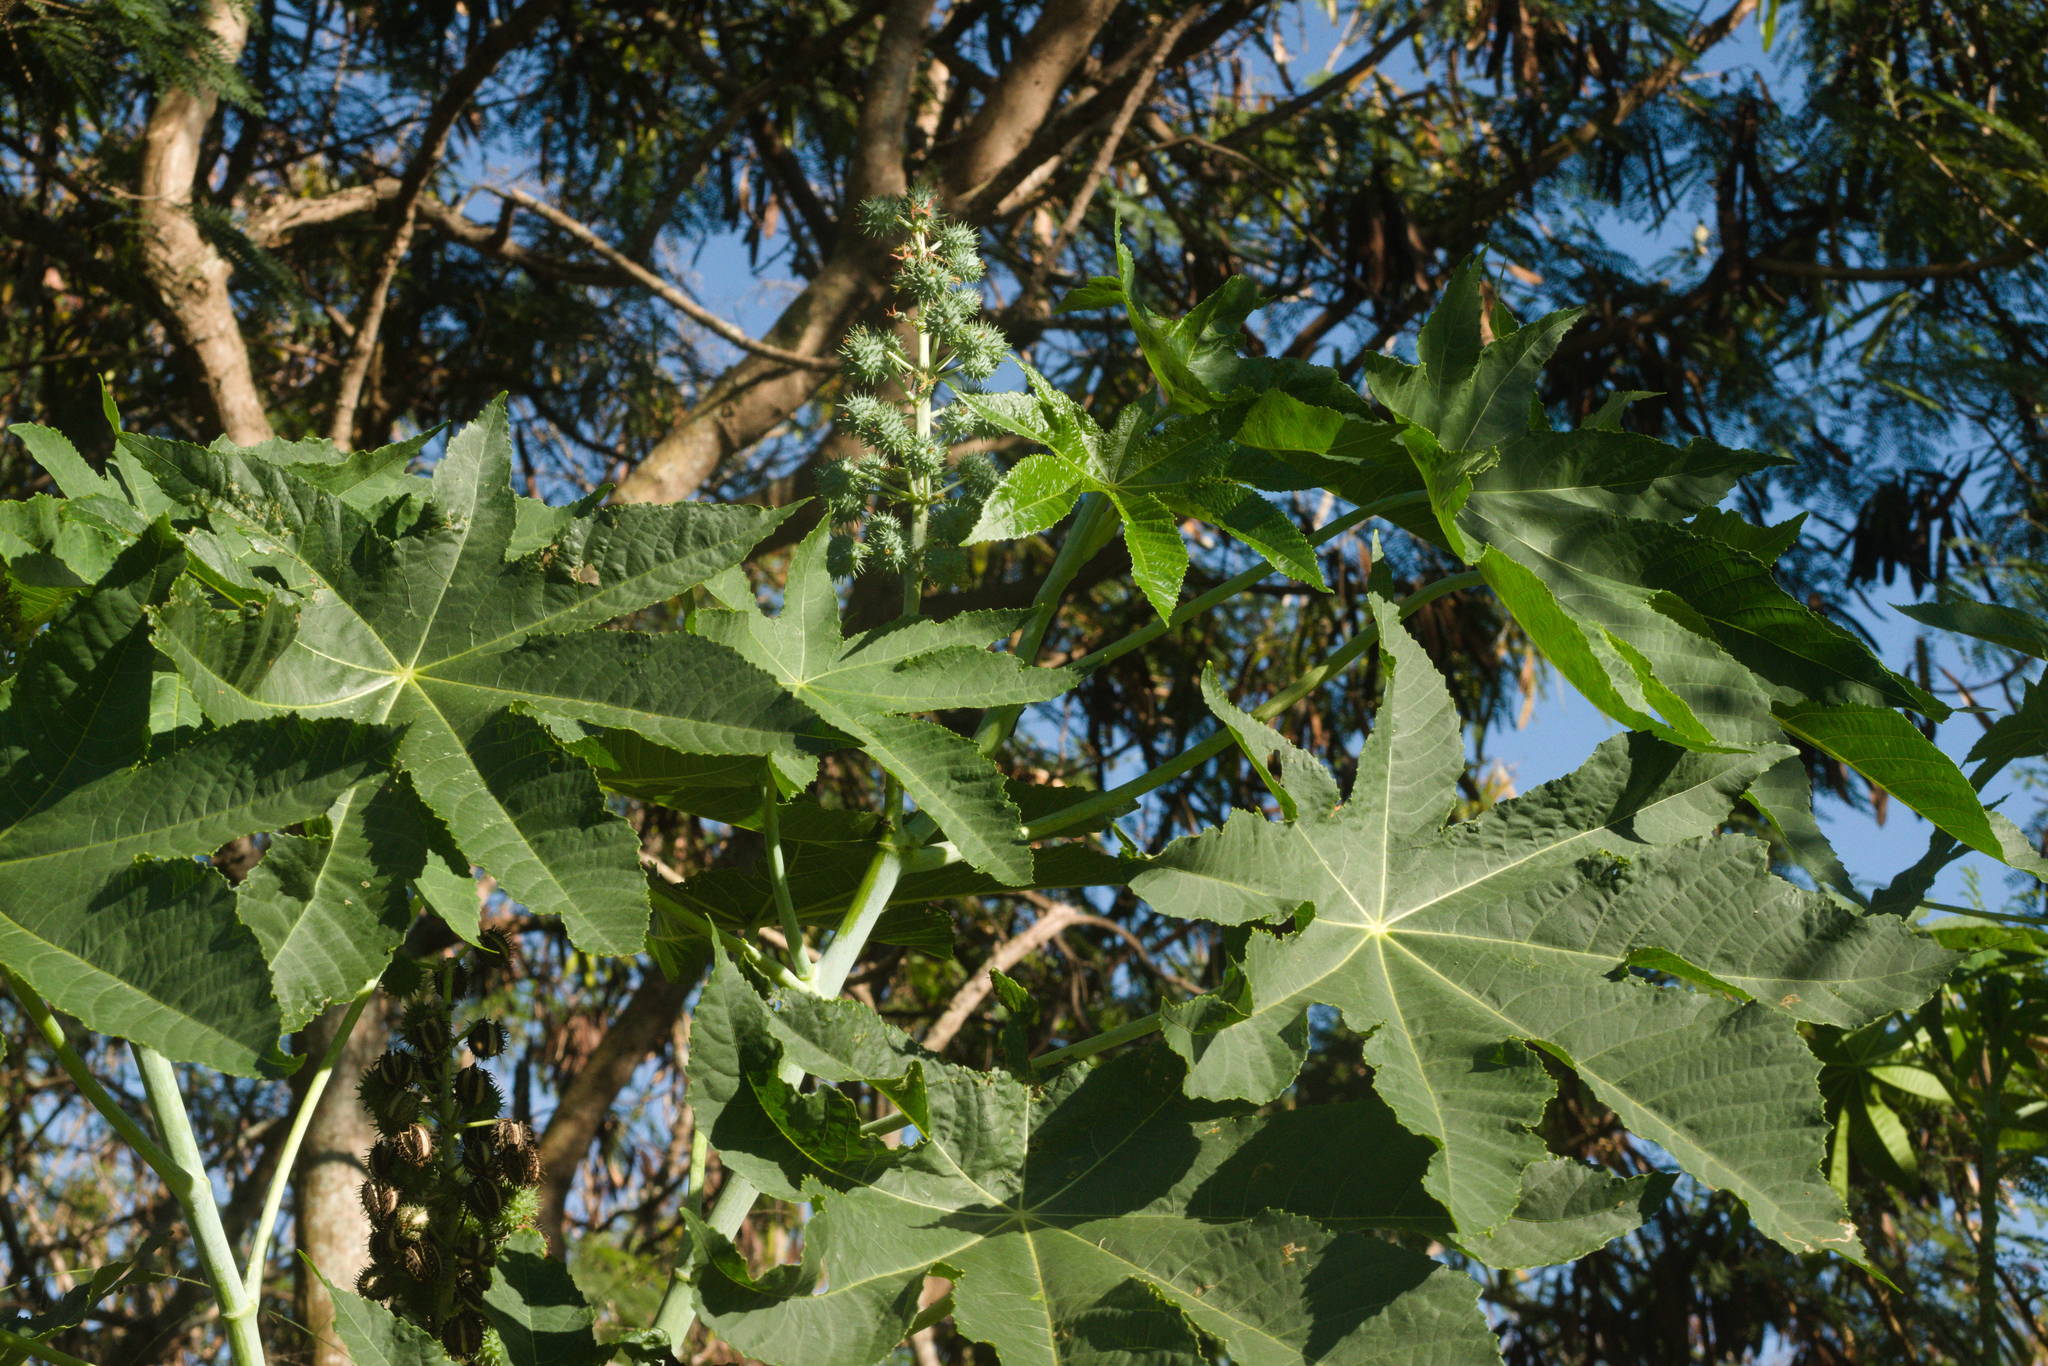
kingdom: Plantae
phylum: Tracheophyta
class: Magnoliopsida
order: Malpighiales
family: Euphorbiaceae
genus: Ricinus
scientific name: Ricinus communis
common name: Castor-oil-plant
